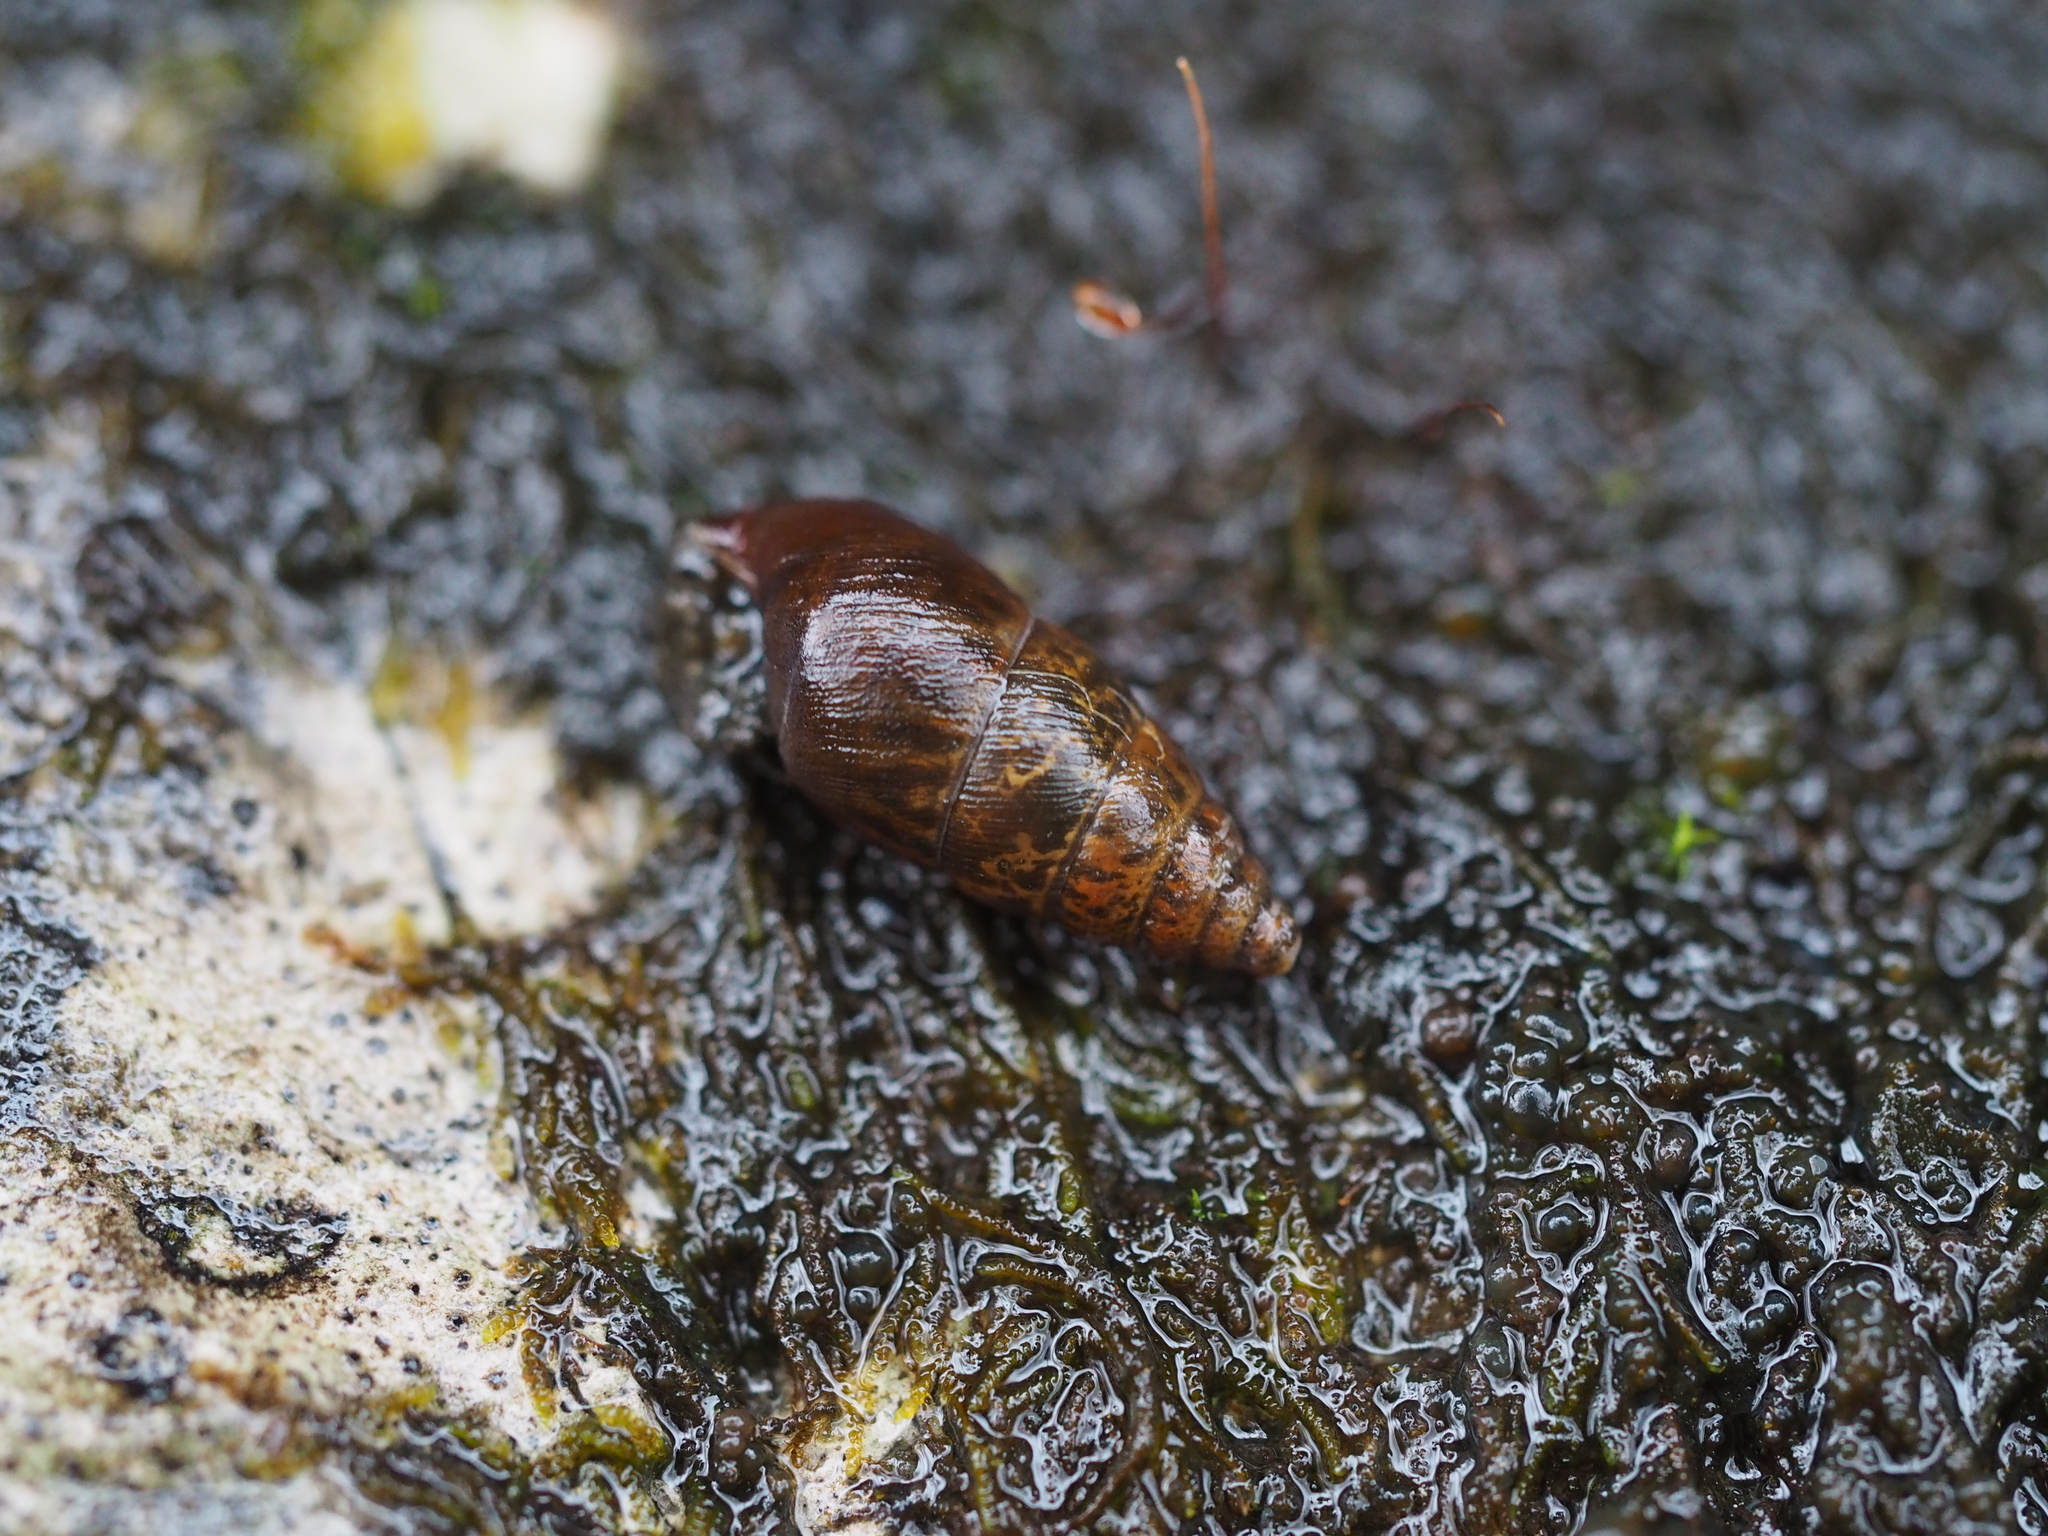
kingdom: Animalia
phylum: Mollusca
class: Gastropoda
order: Stylommatophora
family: Enidae
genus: Ena
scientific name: Ena montana
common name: Mountain bulin
